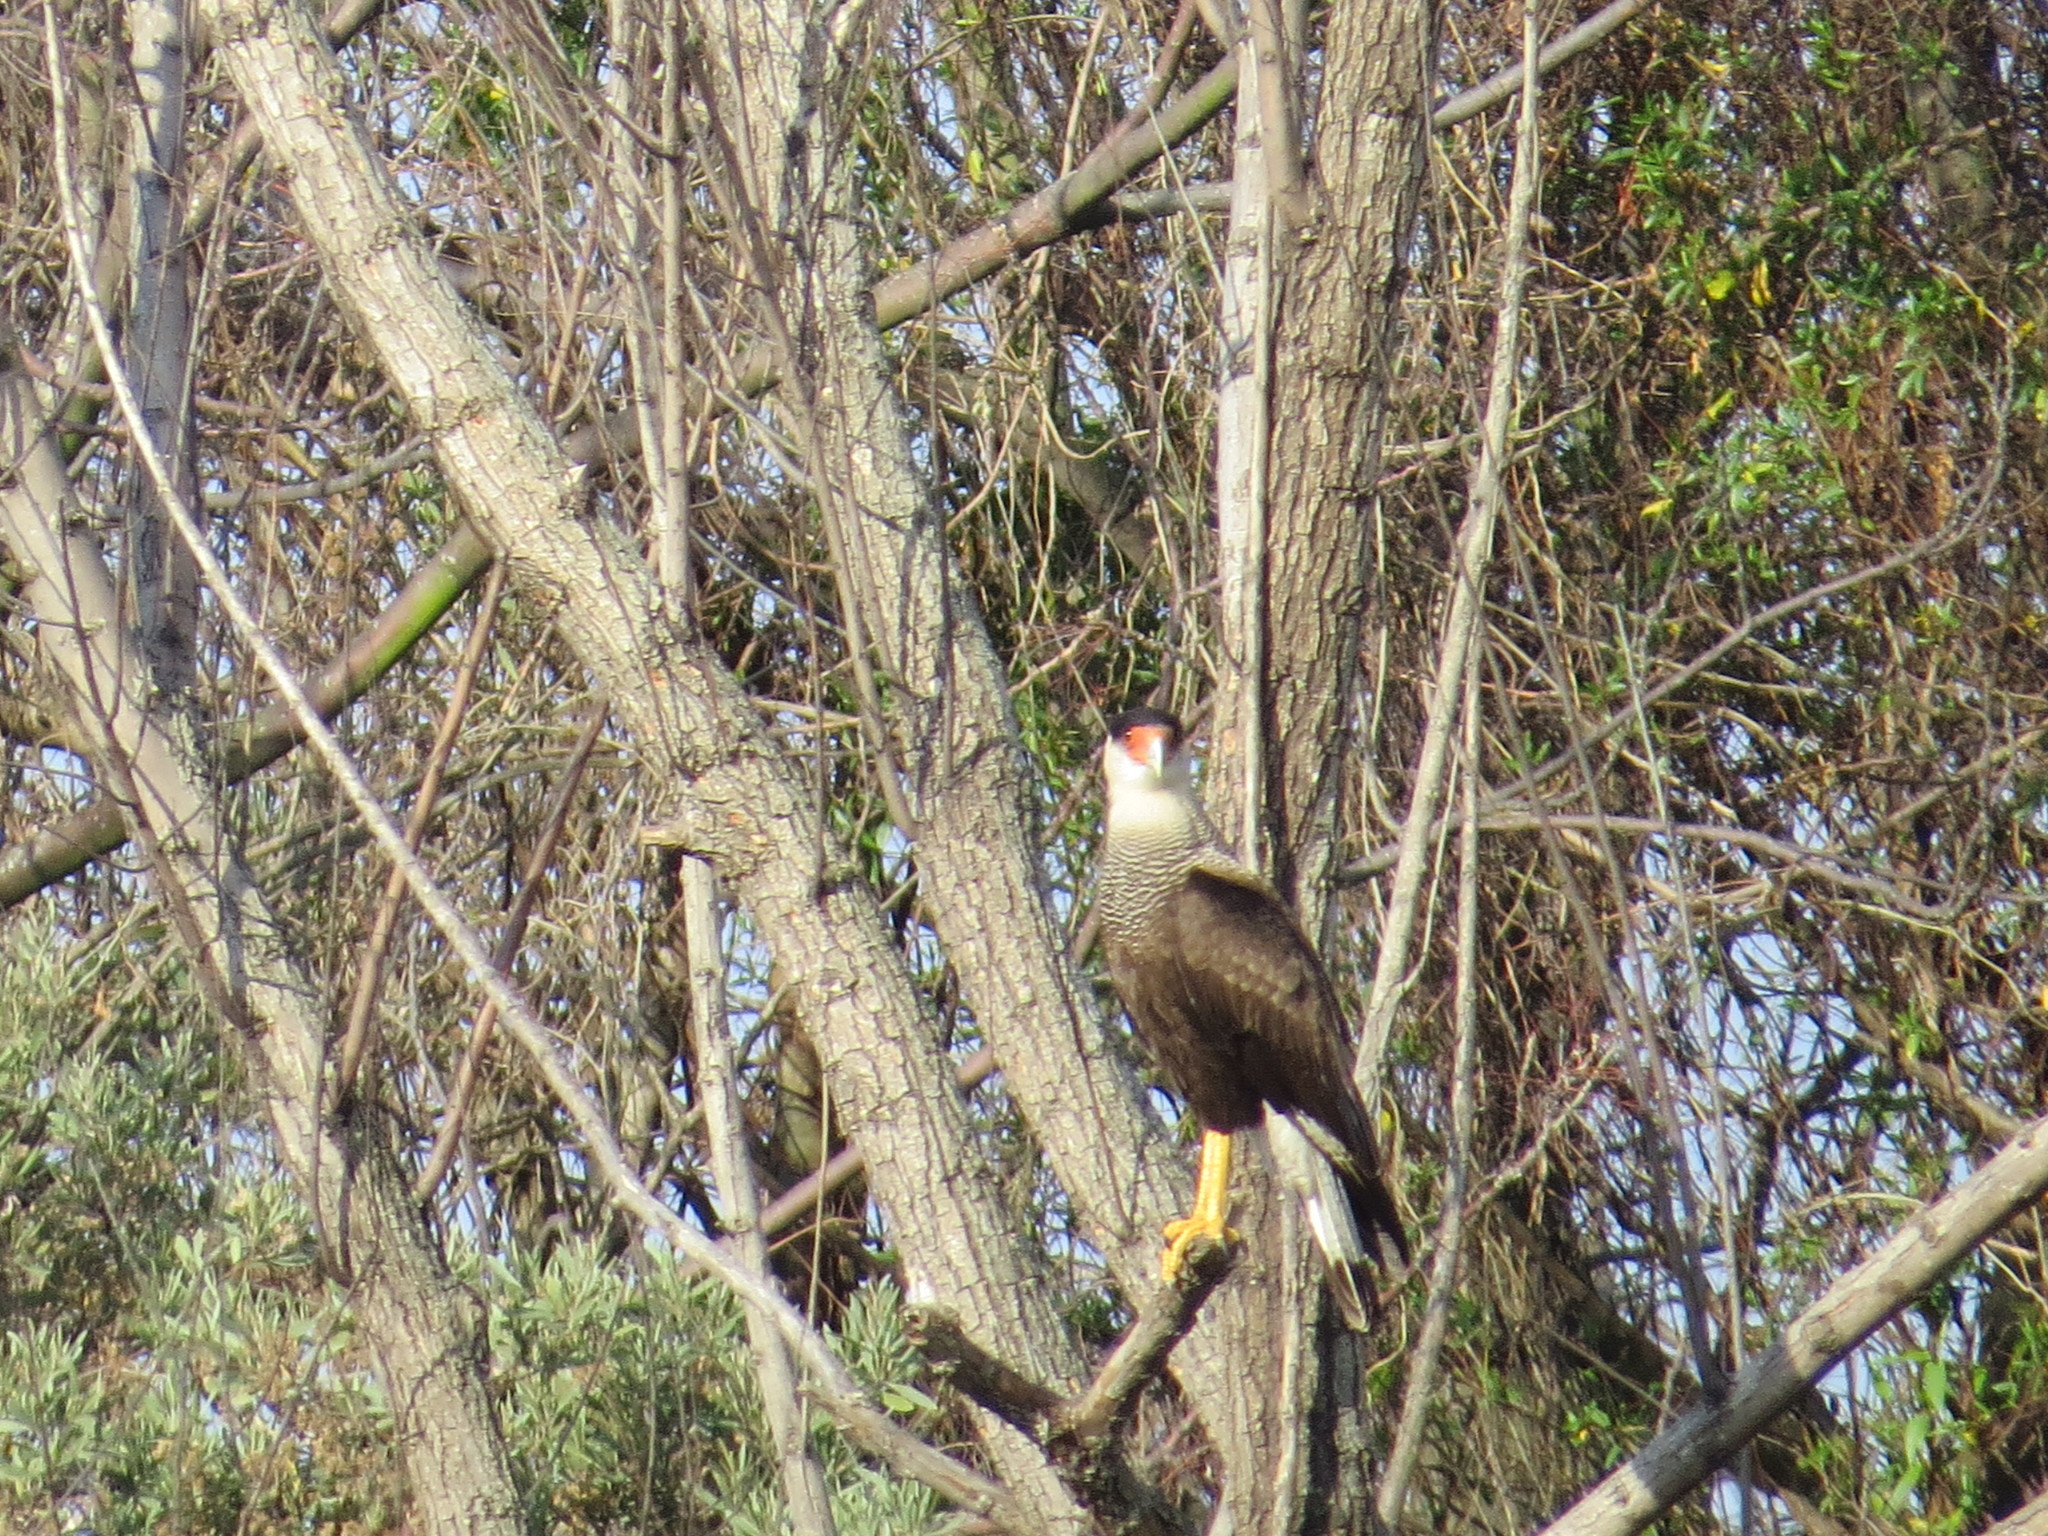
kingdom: Animalia
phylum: Chordata
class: Aves
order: Falconiformes
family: Falconidae
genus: Caracara
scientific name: Caracara plancus
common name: Southern caracara
